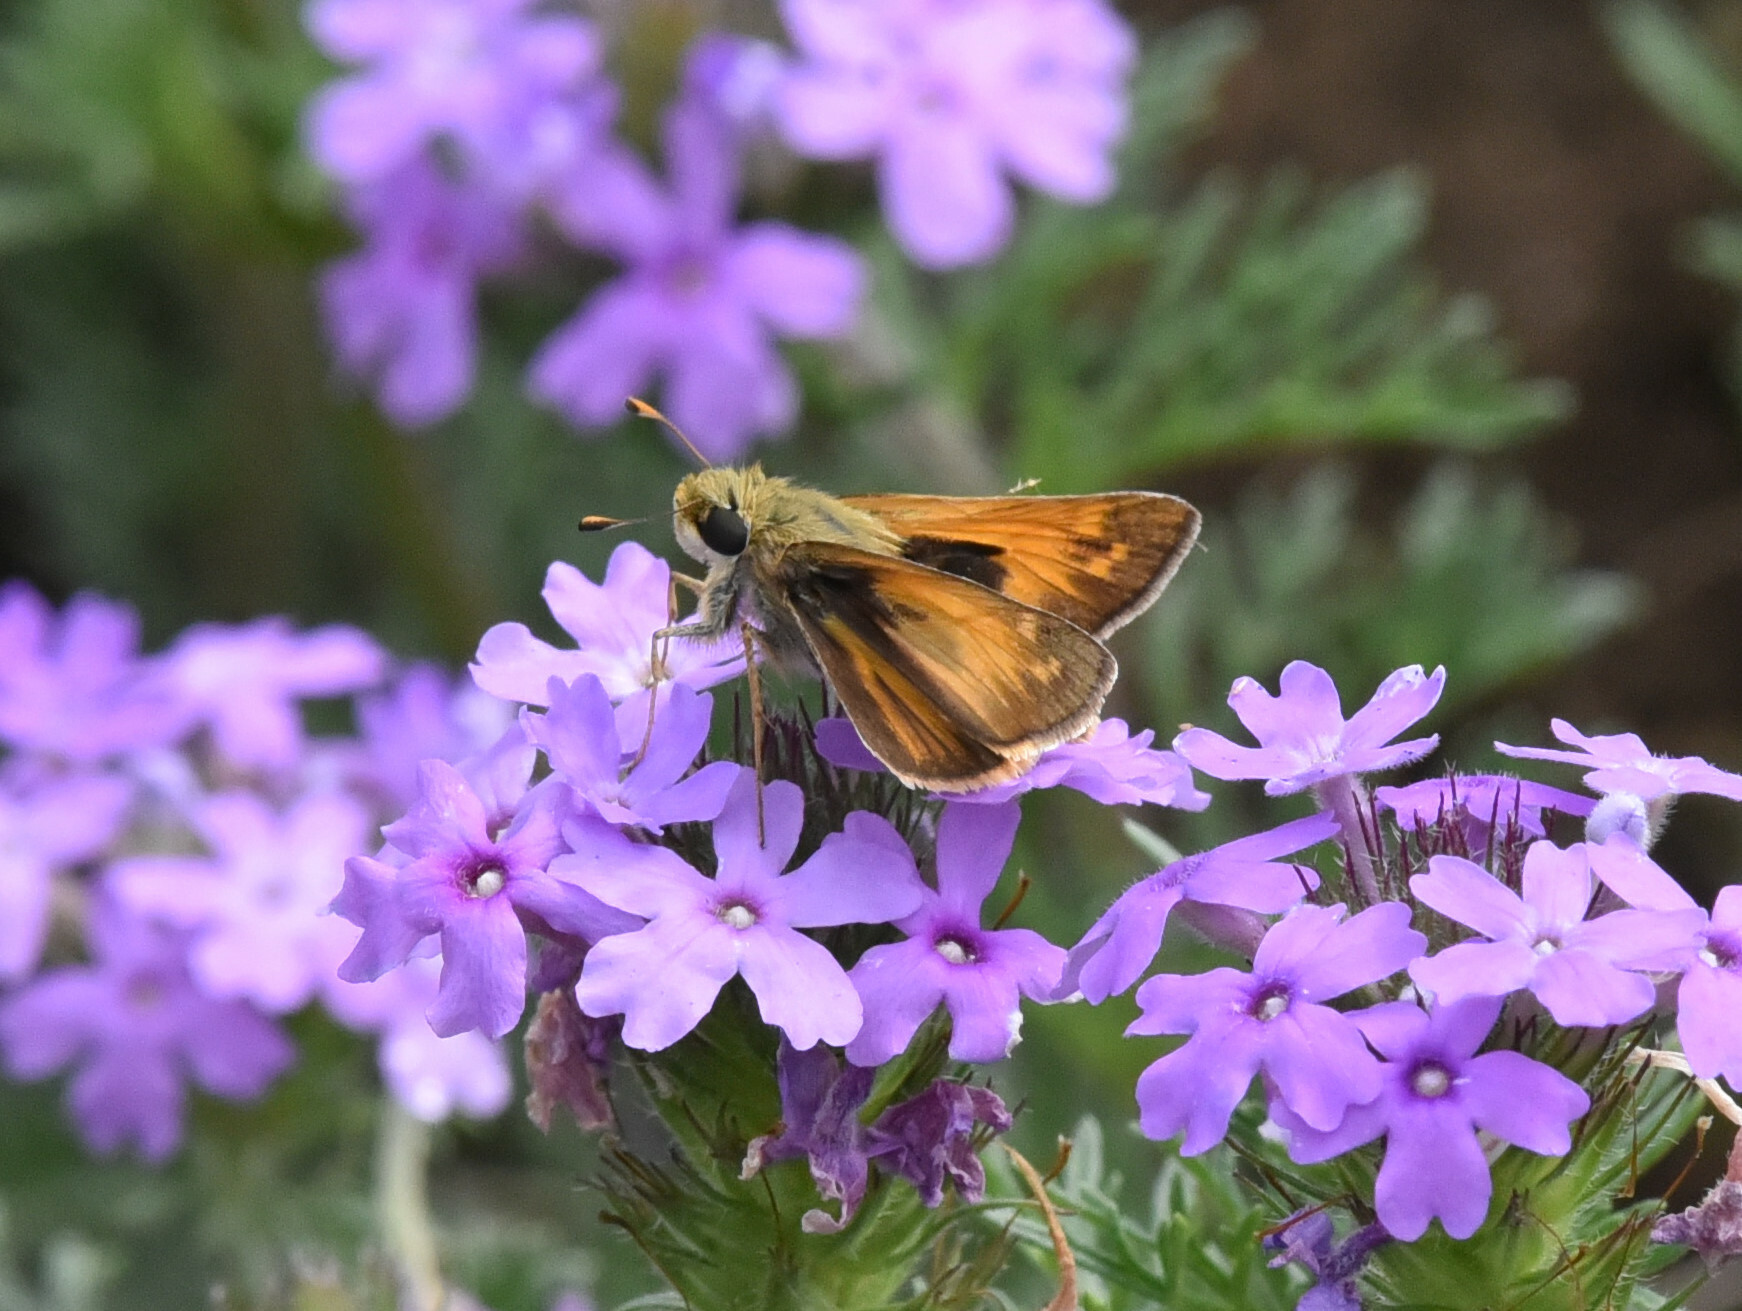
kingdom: Animalia
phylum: Arthropoda
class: Insecta
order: Lepidoptera
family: Hesperiidae
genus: Atalopedes
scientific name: Atalopedes
